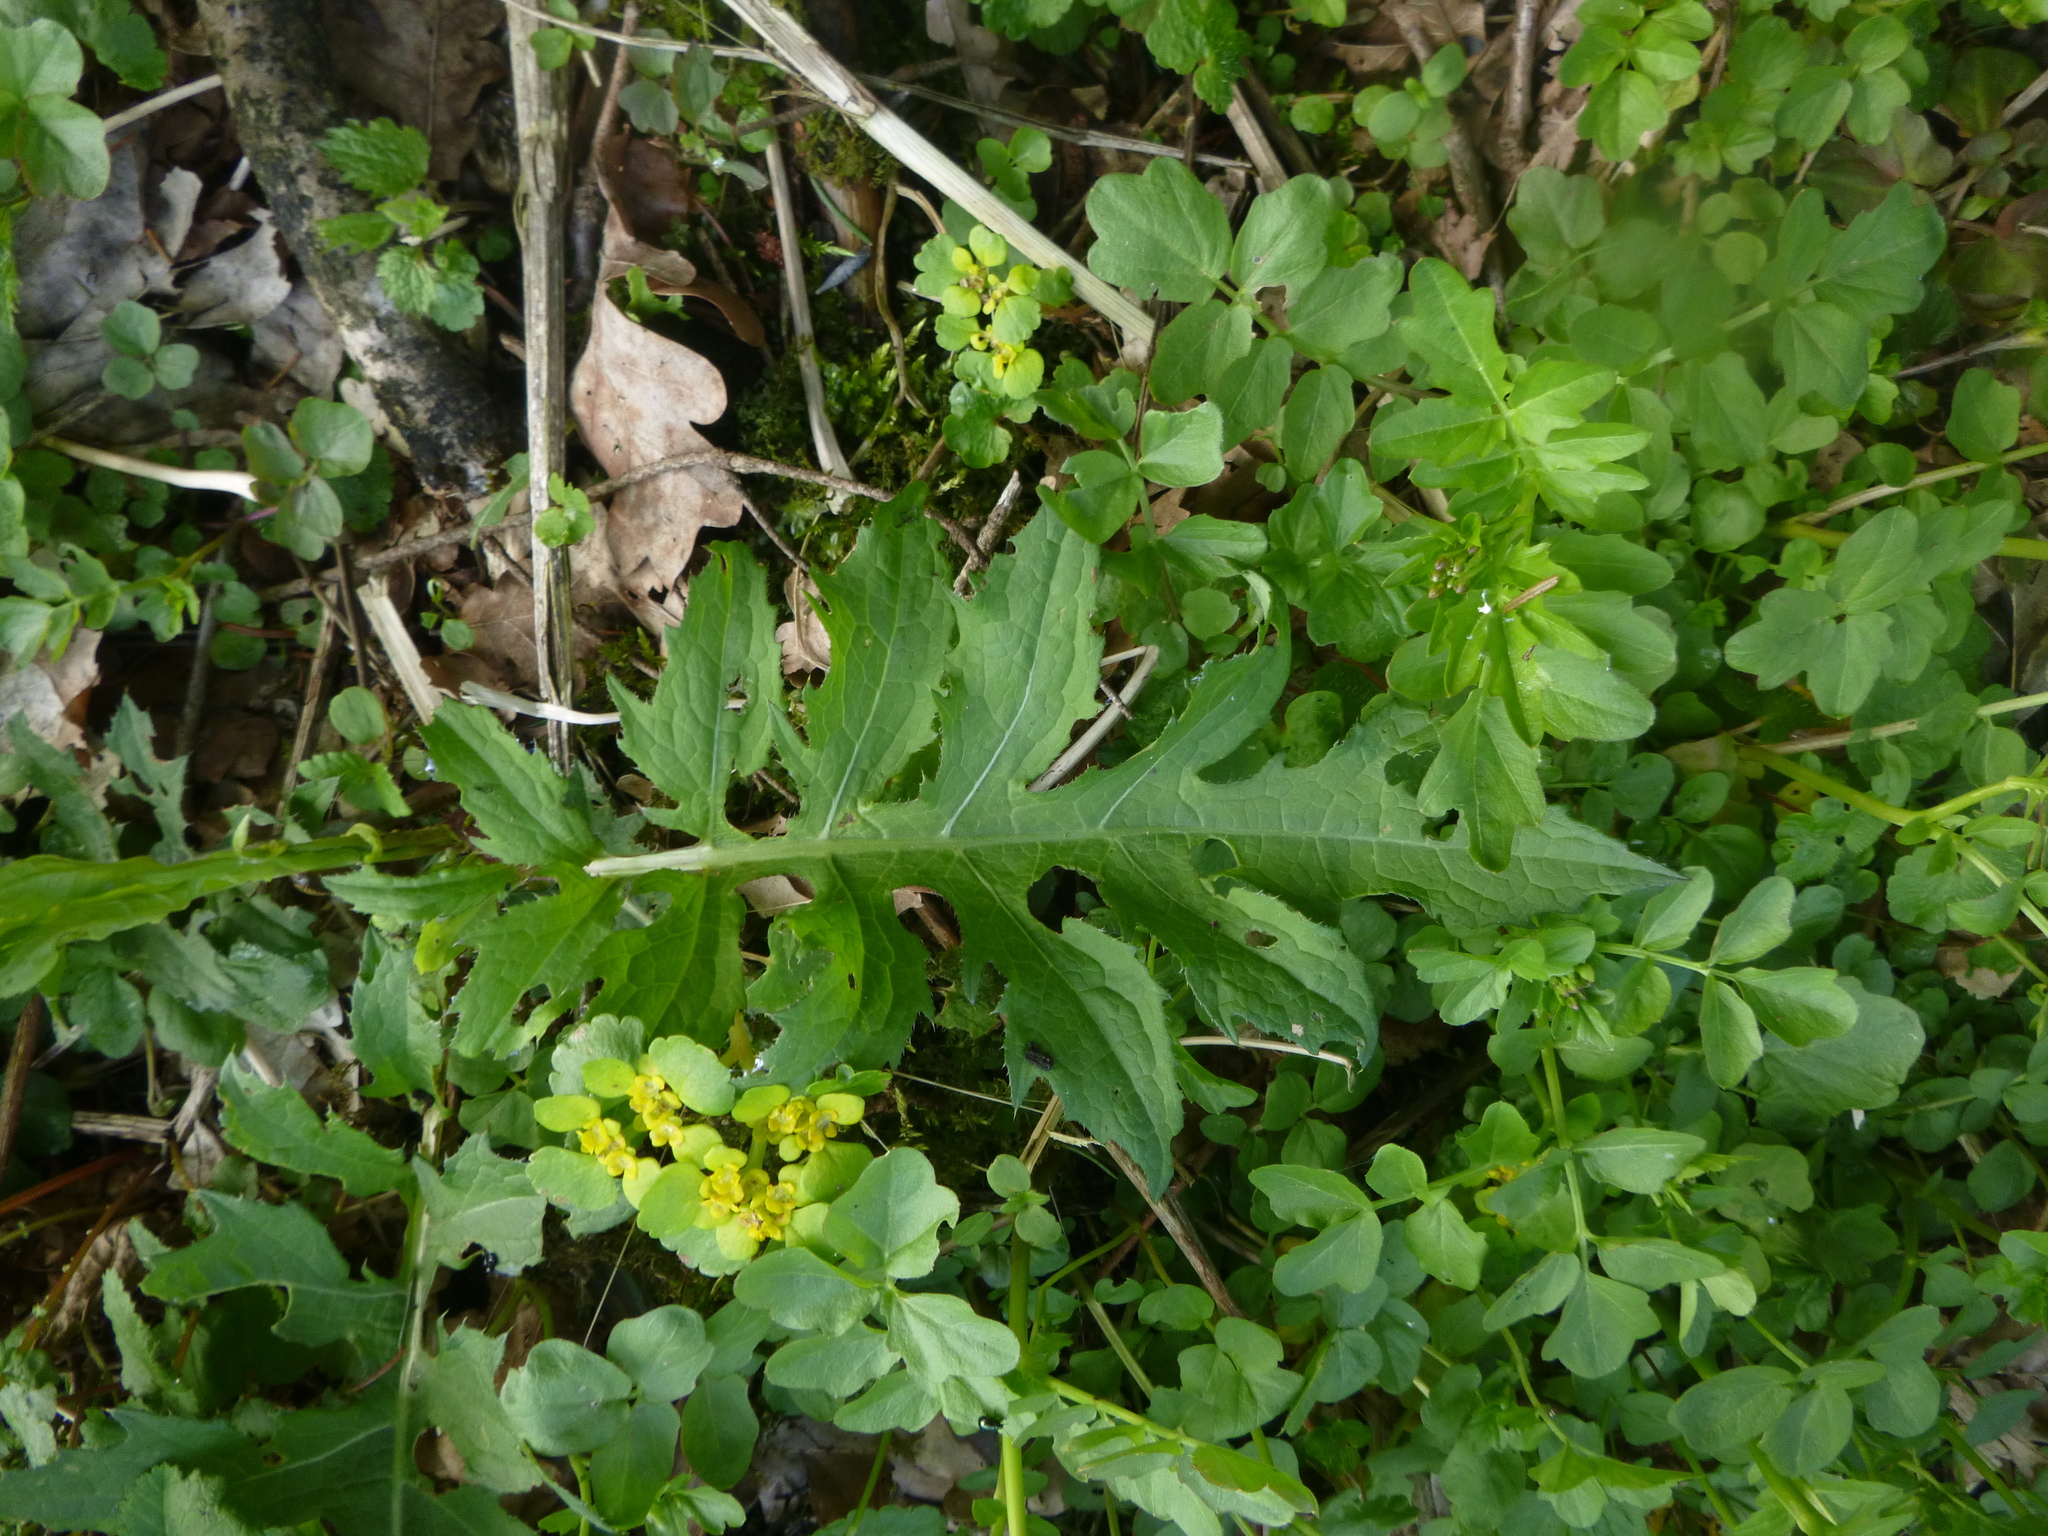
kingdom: Plantae
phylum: Tracheophyta
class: Magnoliopsida
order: Asterales
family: Asteraceae
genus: Cirsium
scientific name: Cirsium oleraceum
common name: Cabbage thistle
